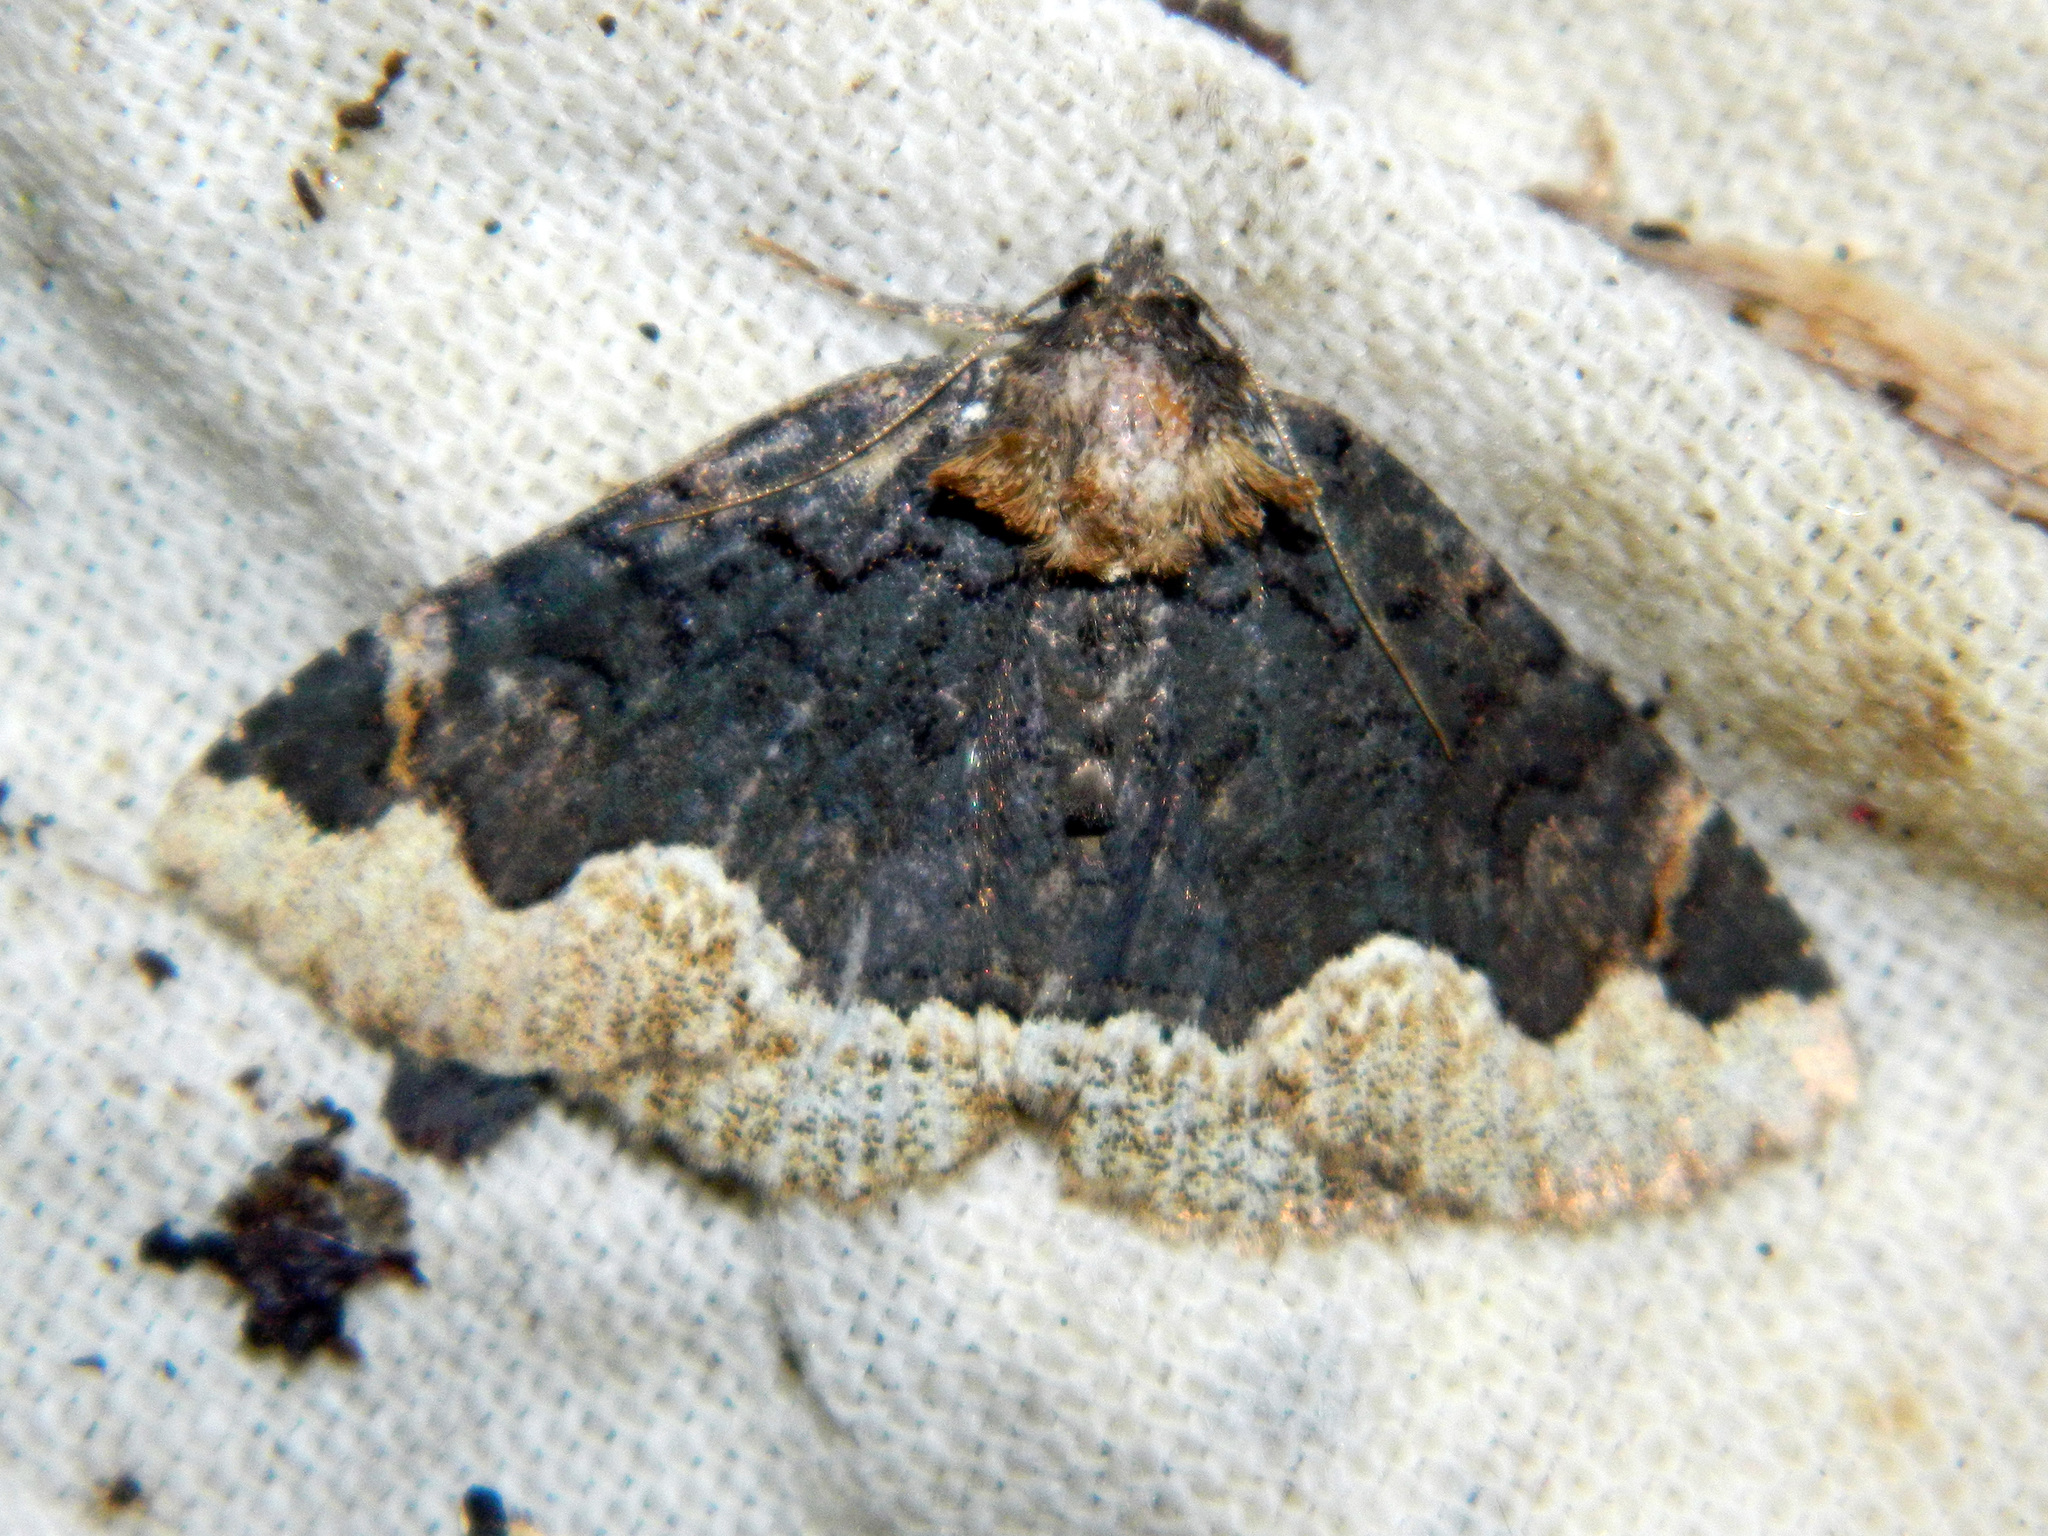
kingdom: Animalia
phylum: Arthropoda
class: Insecta
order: Lepidoptera
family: Erebidae
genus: Zale
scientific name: Zale horrida
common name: Horrid zale moth
